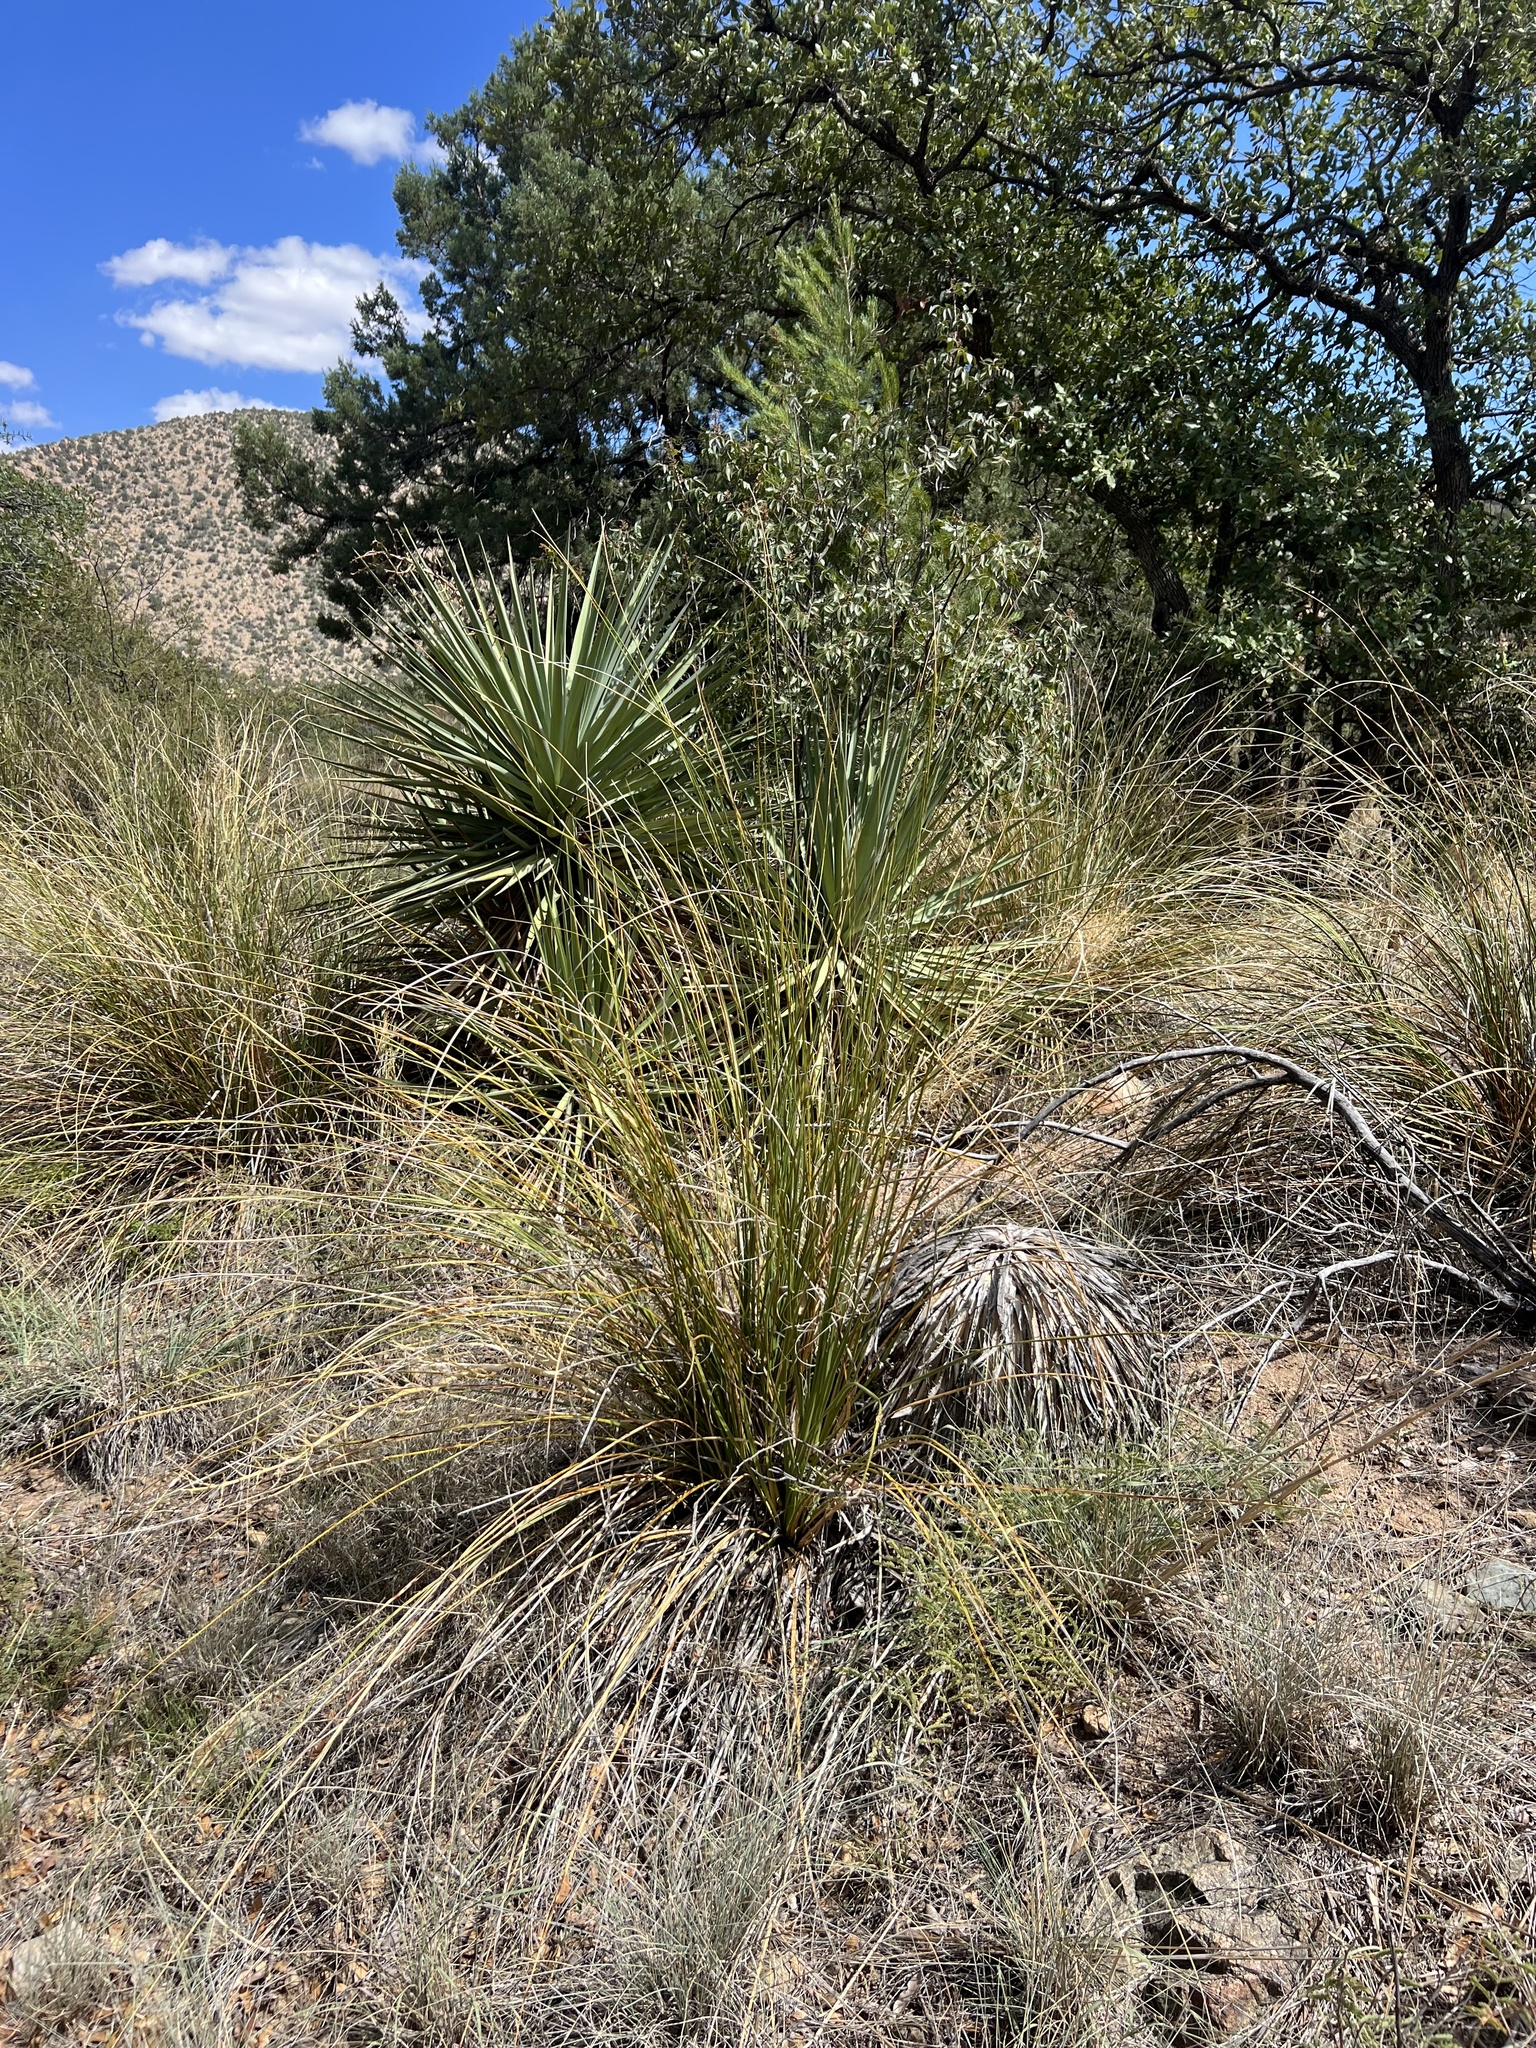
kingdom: Plantae
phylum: Tracheophyta
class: Liliopsida
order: Asparagales
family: Asparagaceae
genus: Nolina
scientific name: Nolina microcarpa
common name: Bear-grass
